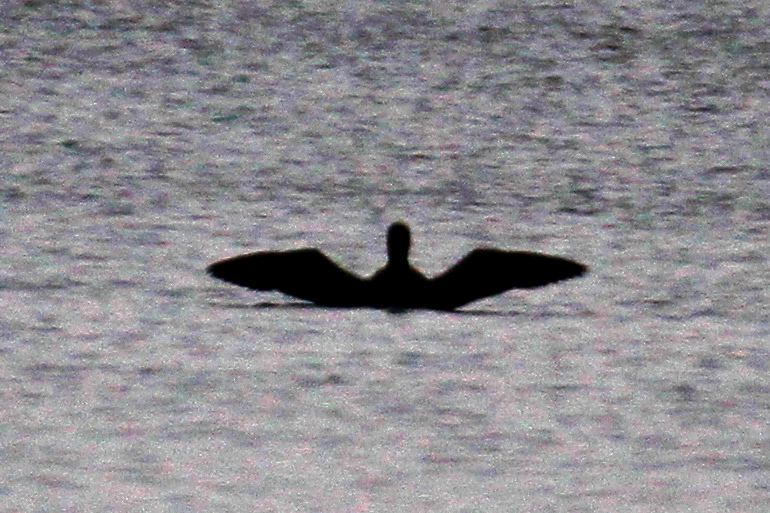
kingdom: Animalia
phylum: Chordata
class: Aves
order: Gaviiformes
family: Gaviidae
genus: Gavia
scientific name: Gavia immer
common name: Common loon
